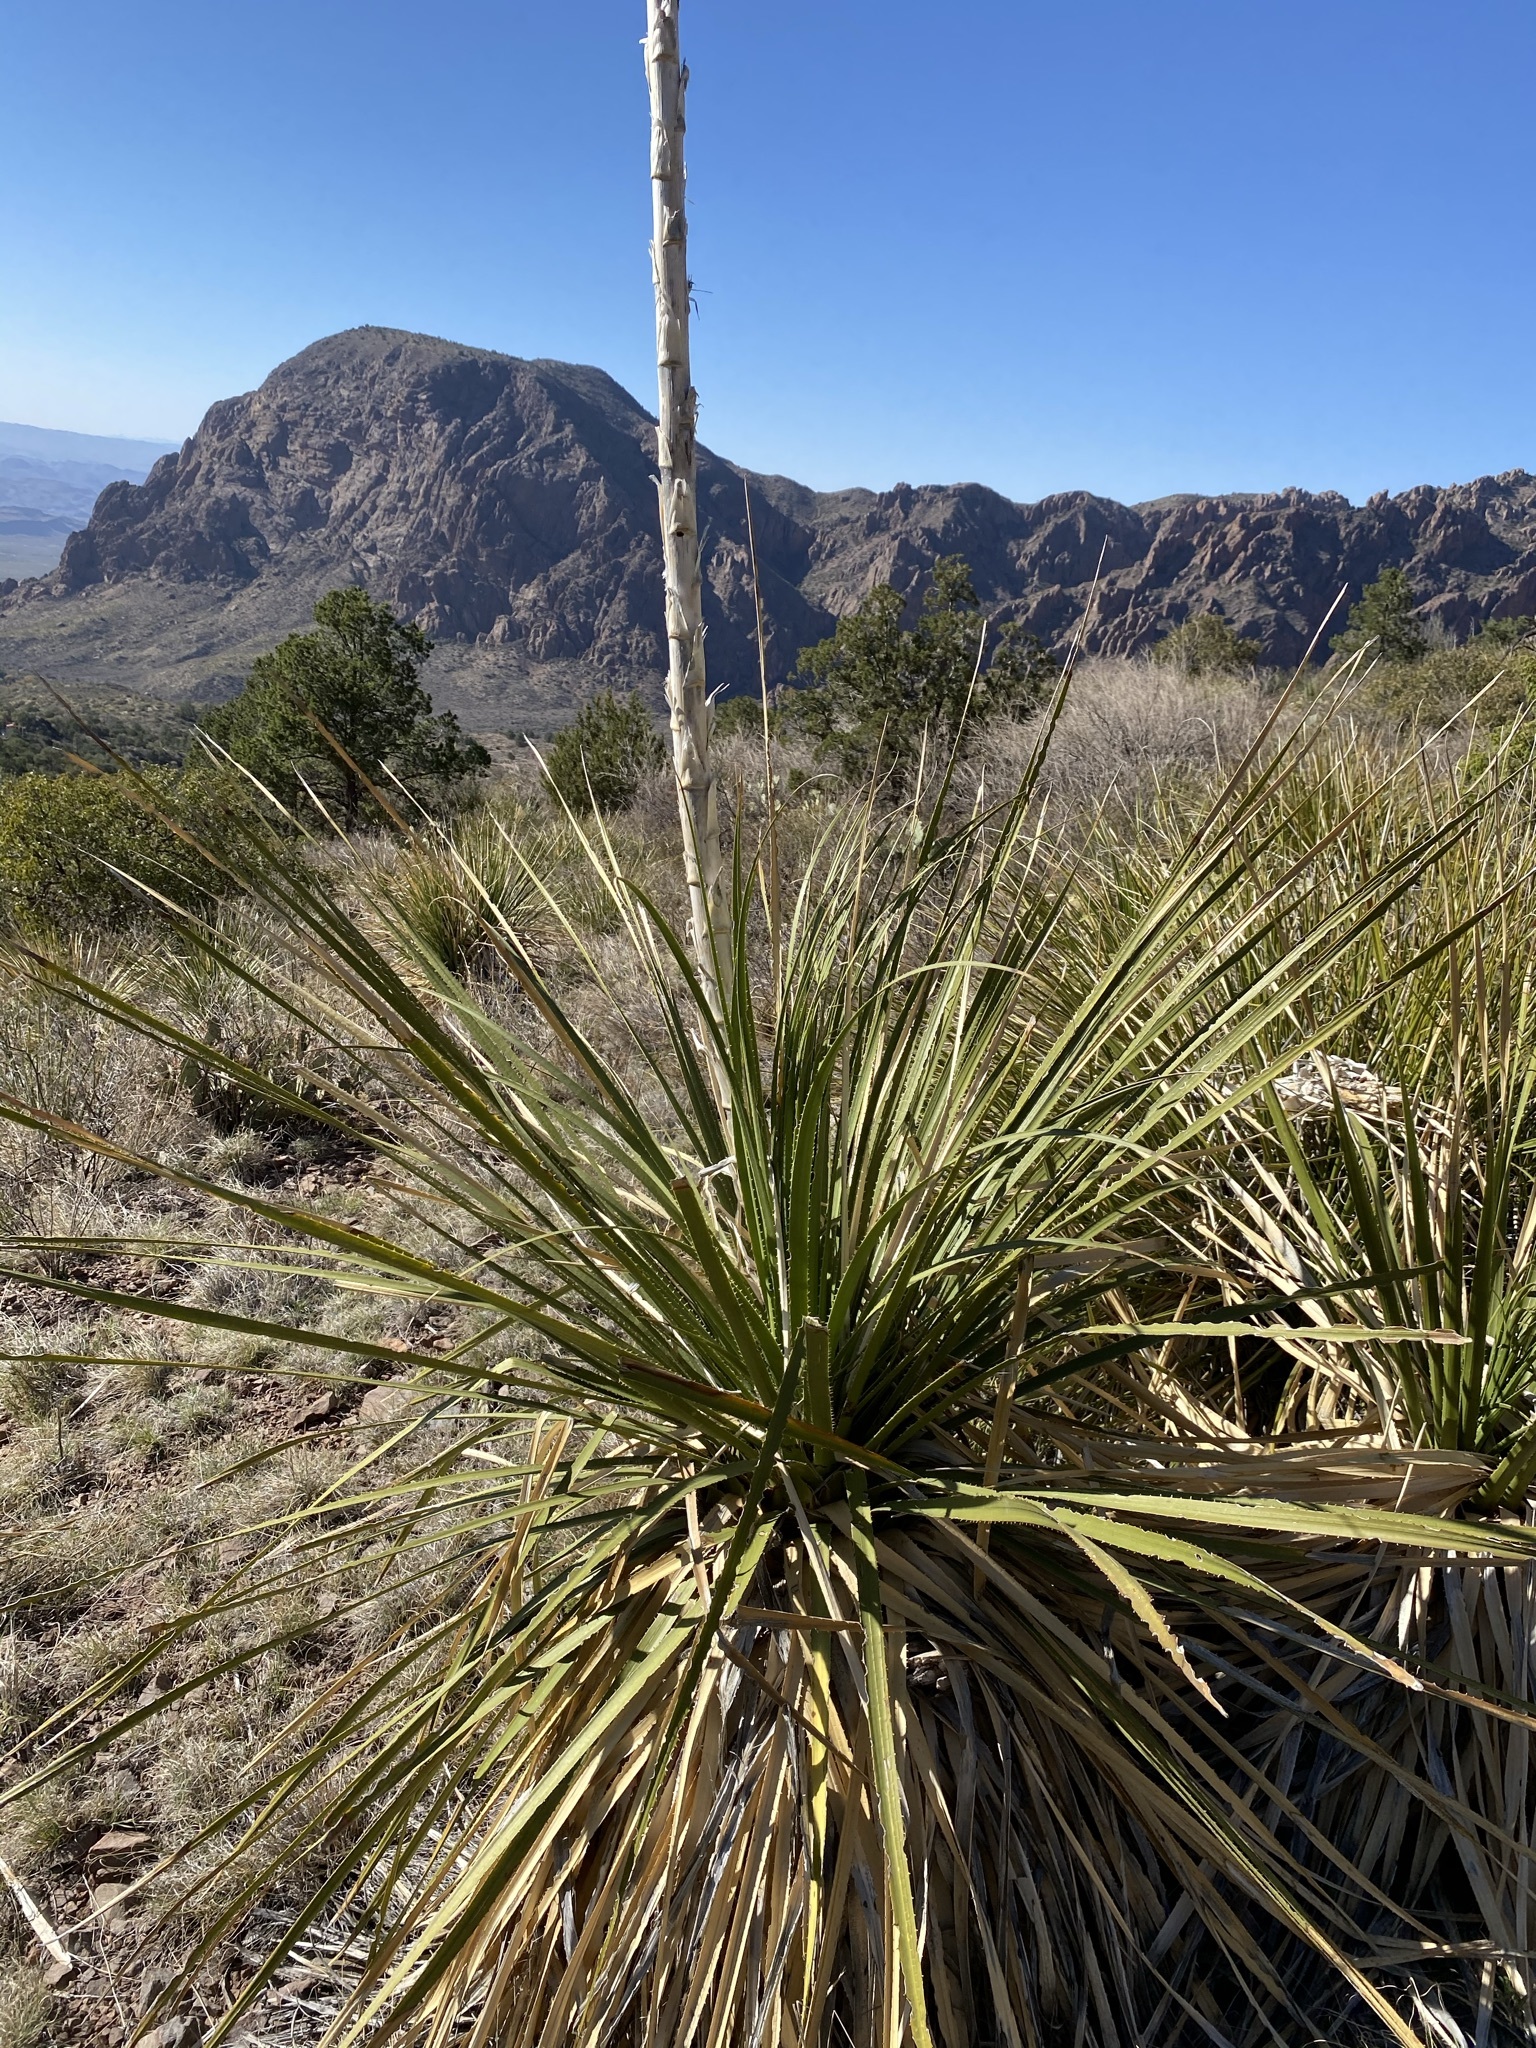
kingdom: Plantae
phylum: Tracheophyta
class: Liliopsida
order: Asparagales
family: Asparagaceae
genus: Dasylirion
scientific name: Dasylirion leiophyllum
